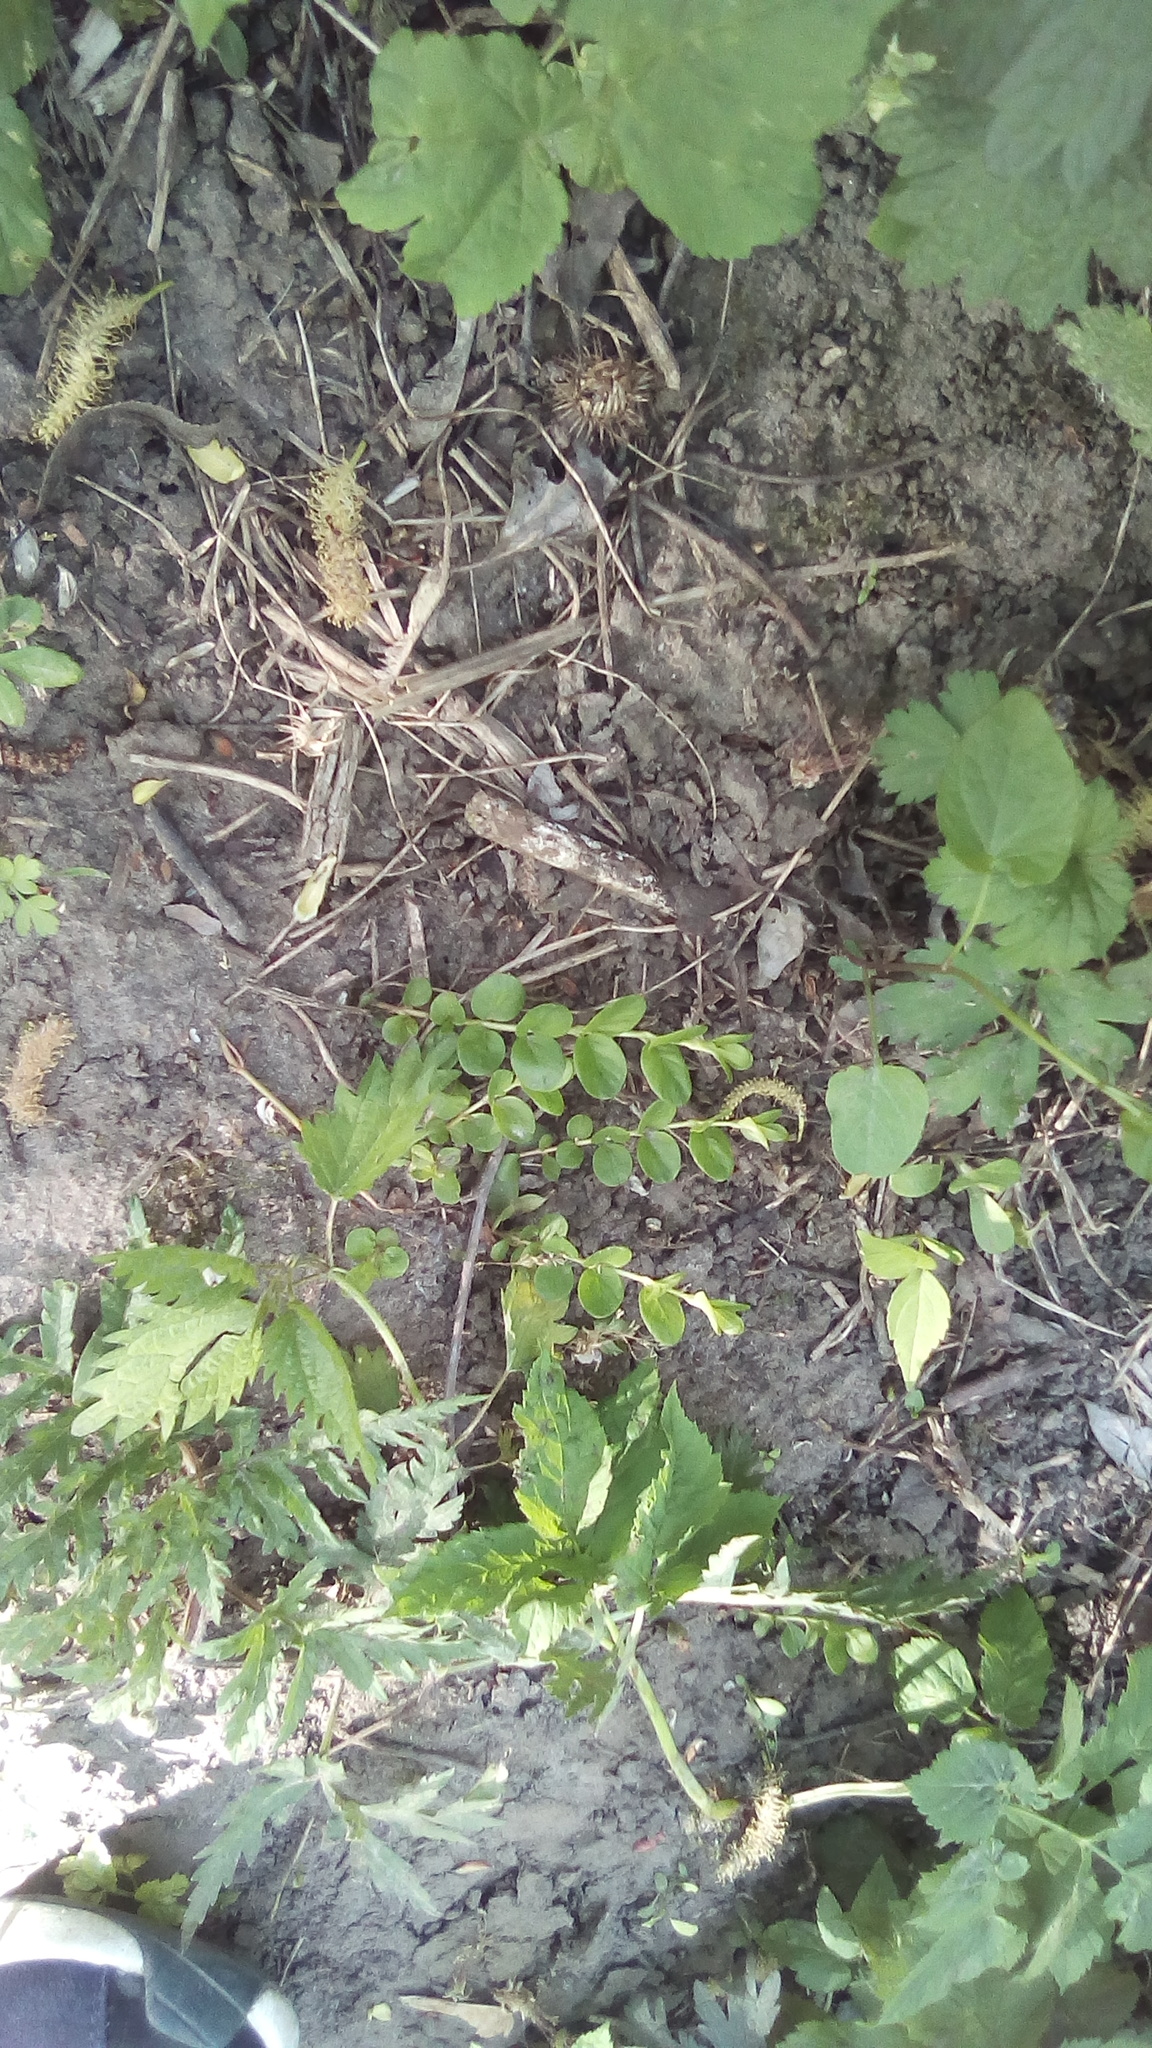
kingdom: Plantae
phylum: Tracheophyta
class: Magnoliopsida
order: Ericales
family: Primulaceae
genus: Lysimachia
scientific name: Lysimachia nummularia
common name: Moneywort
